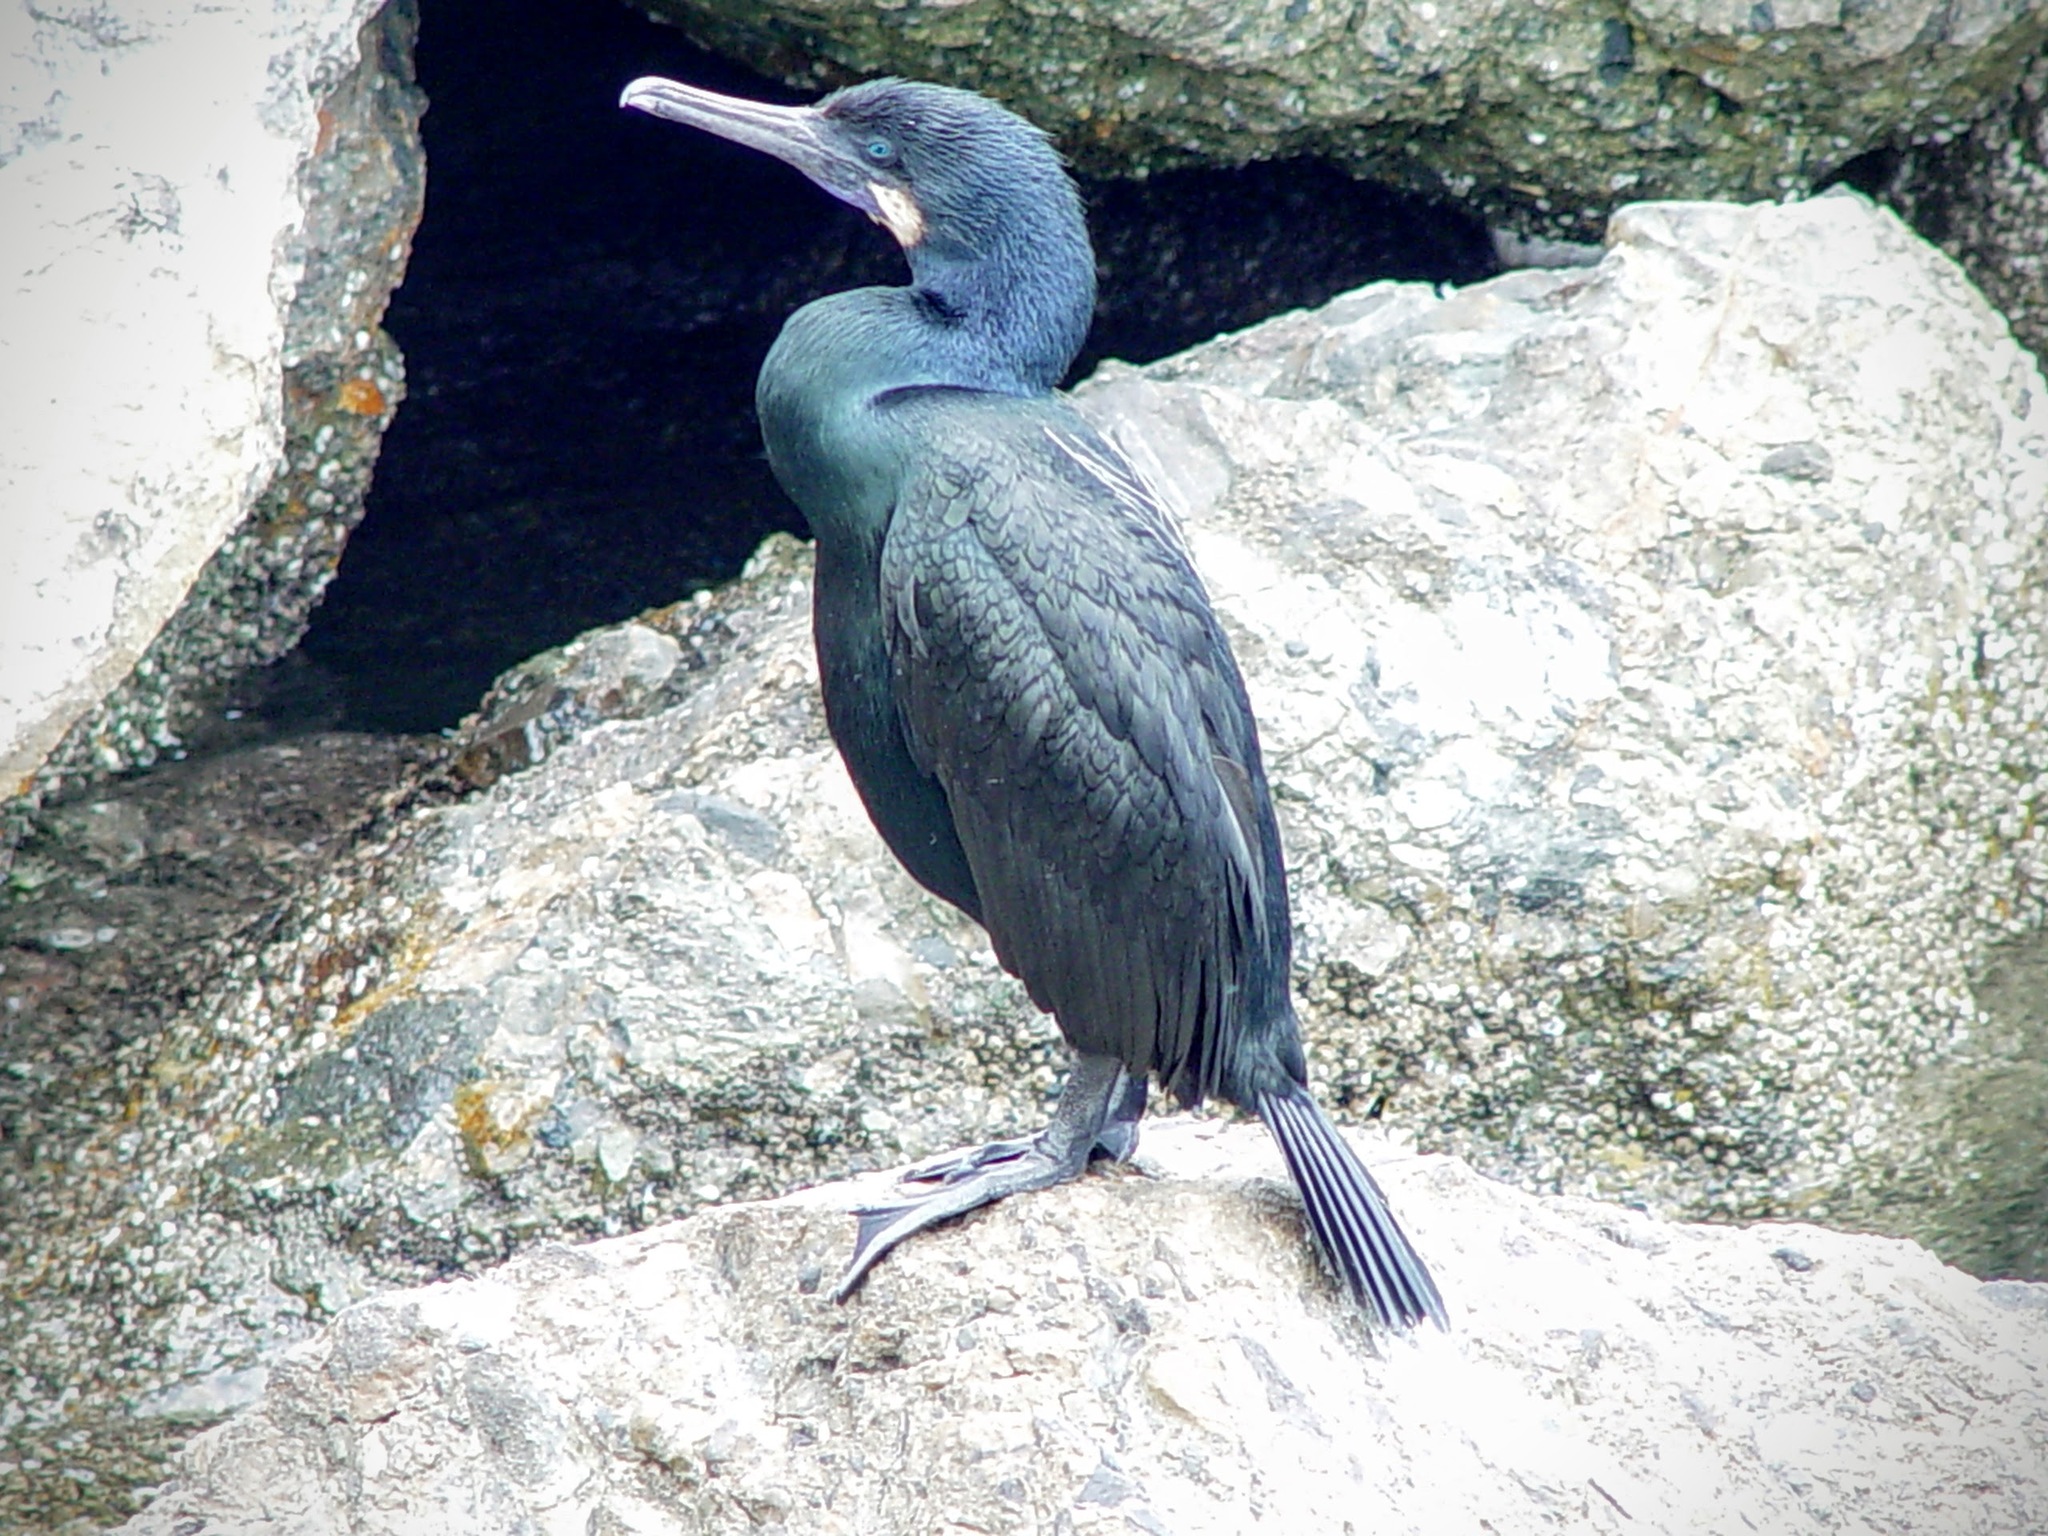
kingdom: Animalia
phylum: Chordata
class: Aves
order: Suliformes
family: Phalacrocoracidae
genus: Urile
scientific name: Urile penicillatus
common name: Brandt's cormorant
